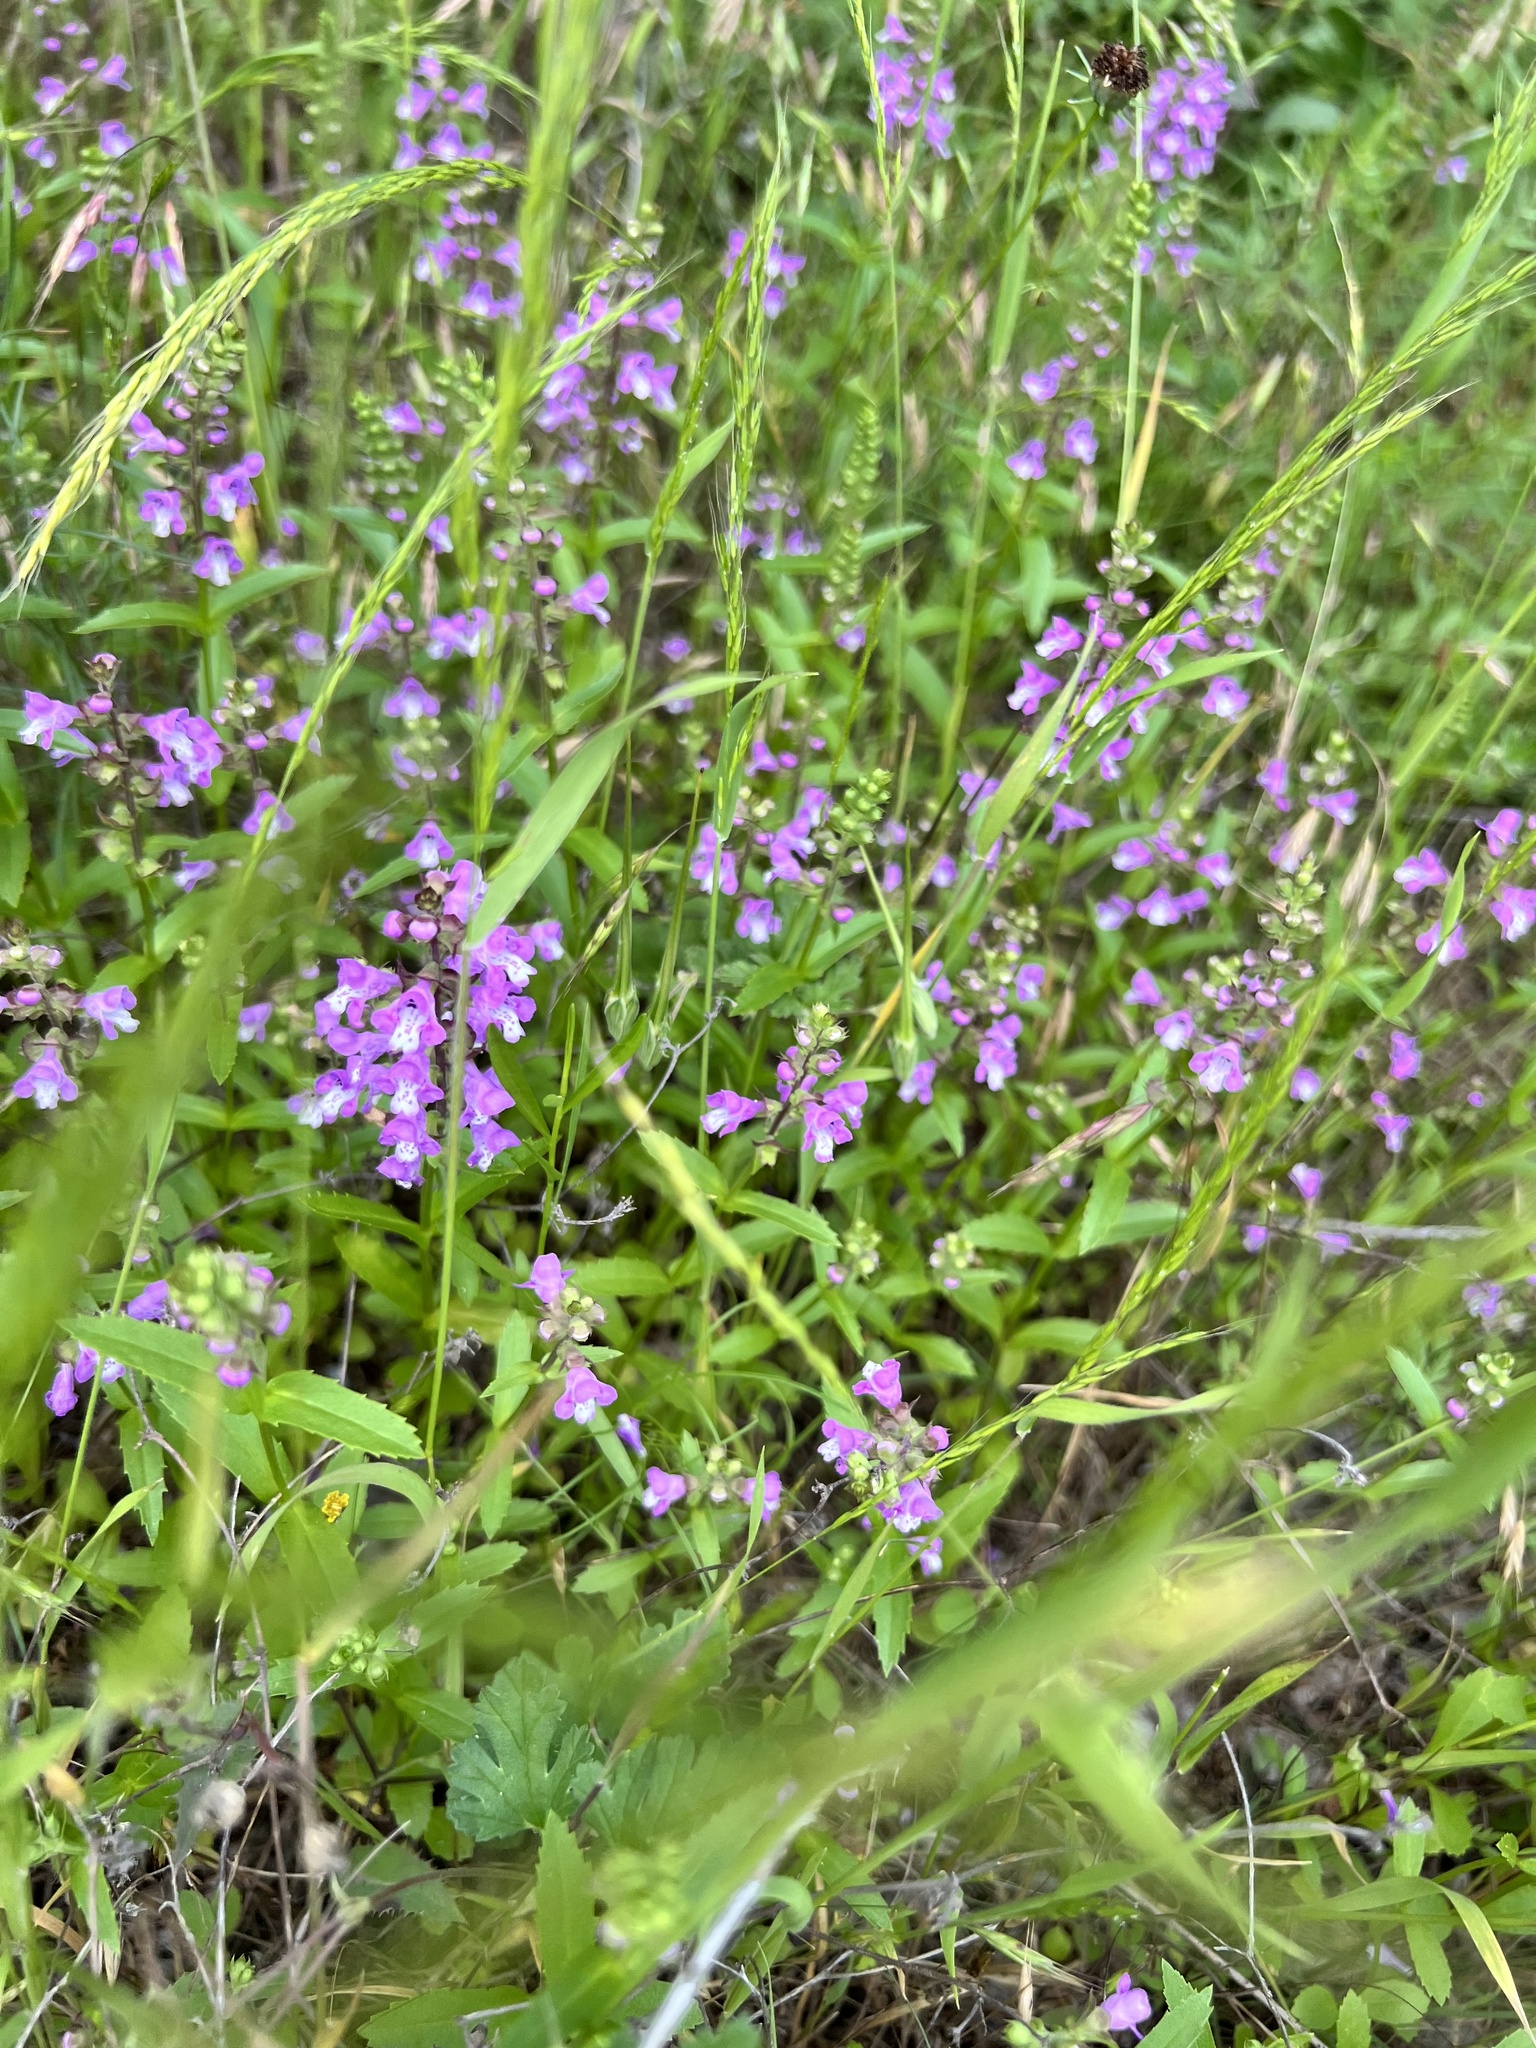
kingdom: Plantae
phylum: Tracheophyta
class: Magnoliopsida
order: Lamiales
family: Lamiaceae
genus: Warnockia
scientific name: Warnockia scutellarioides
